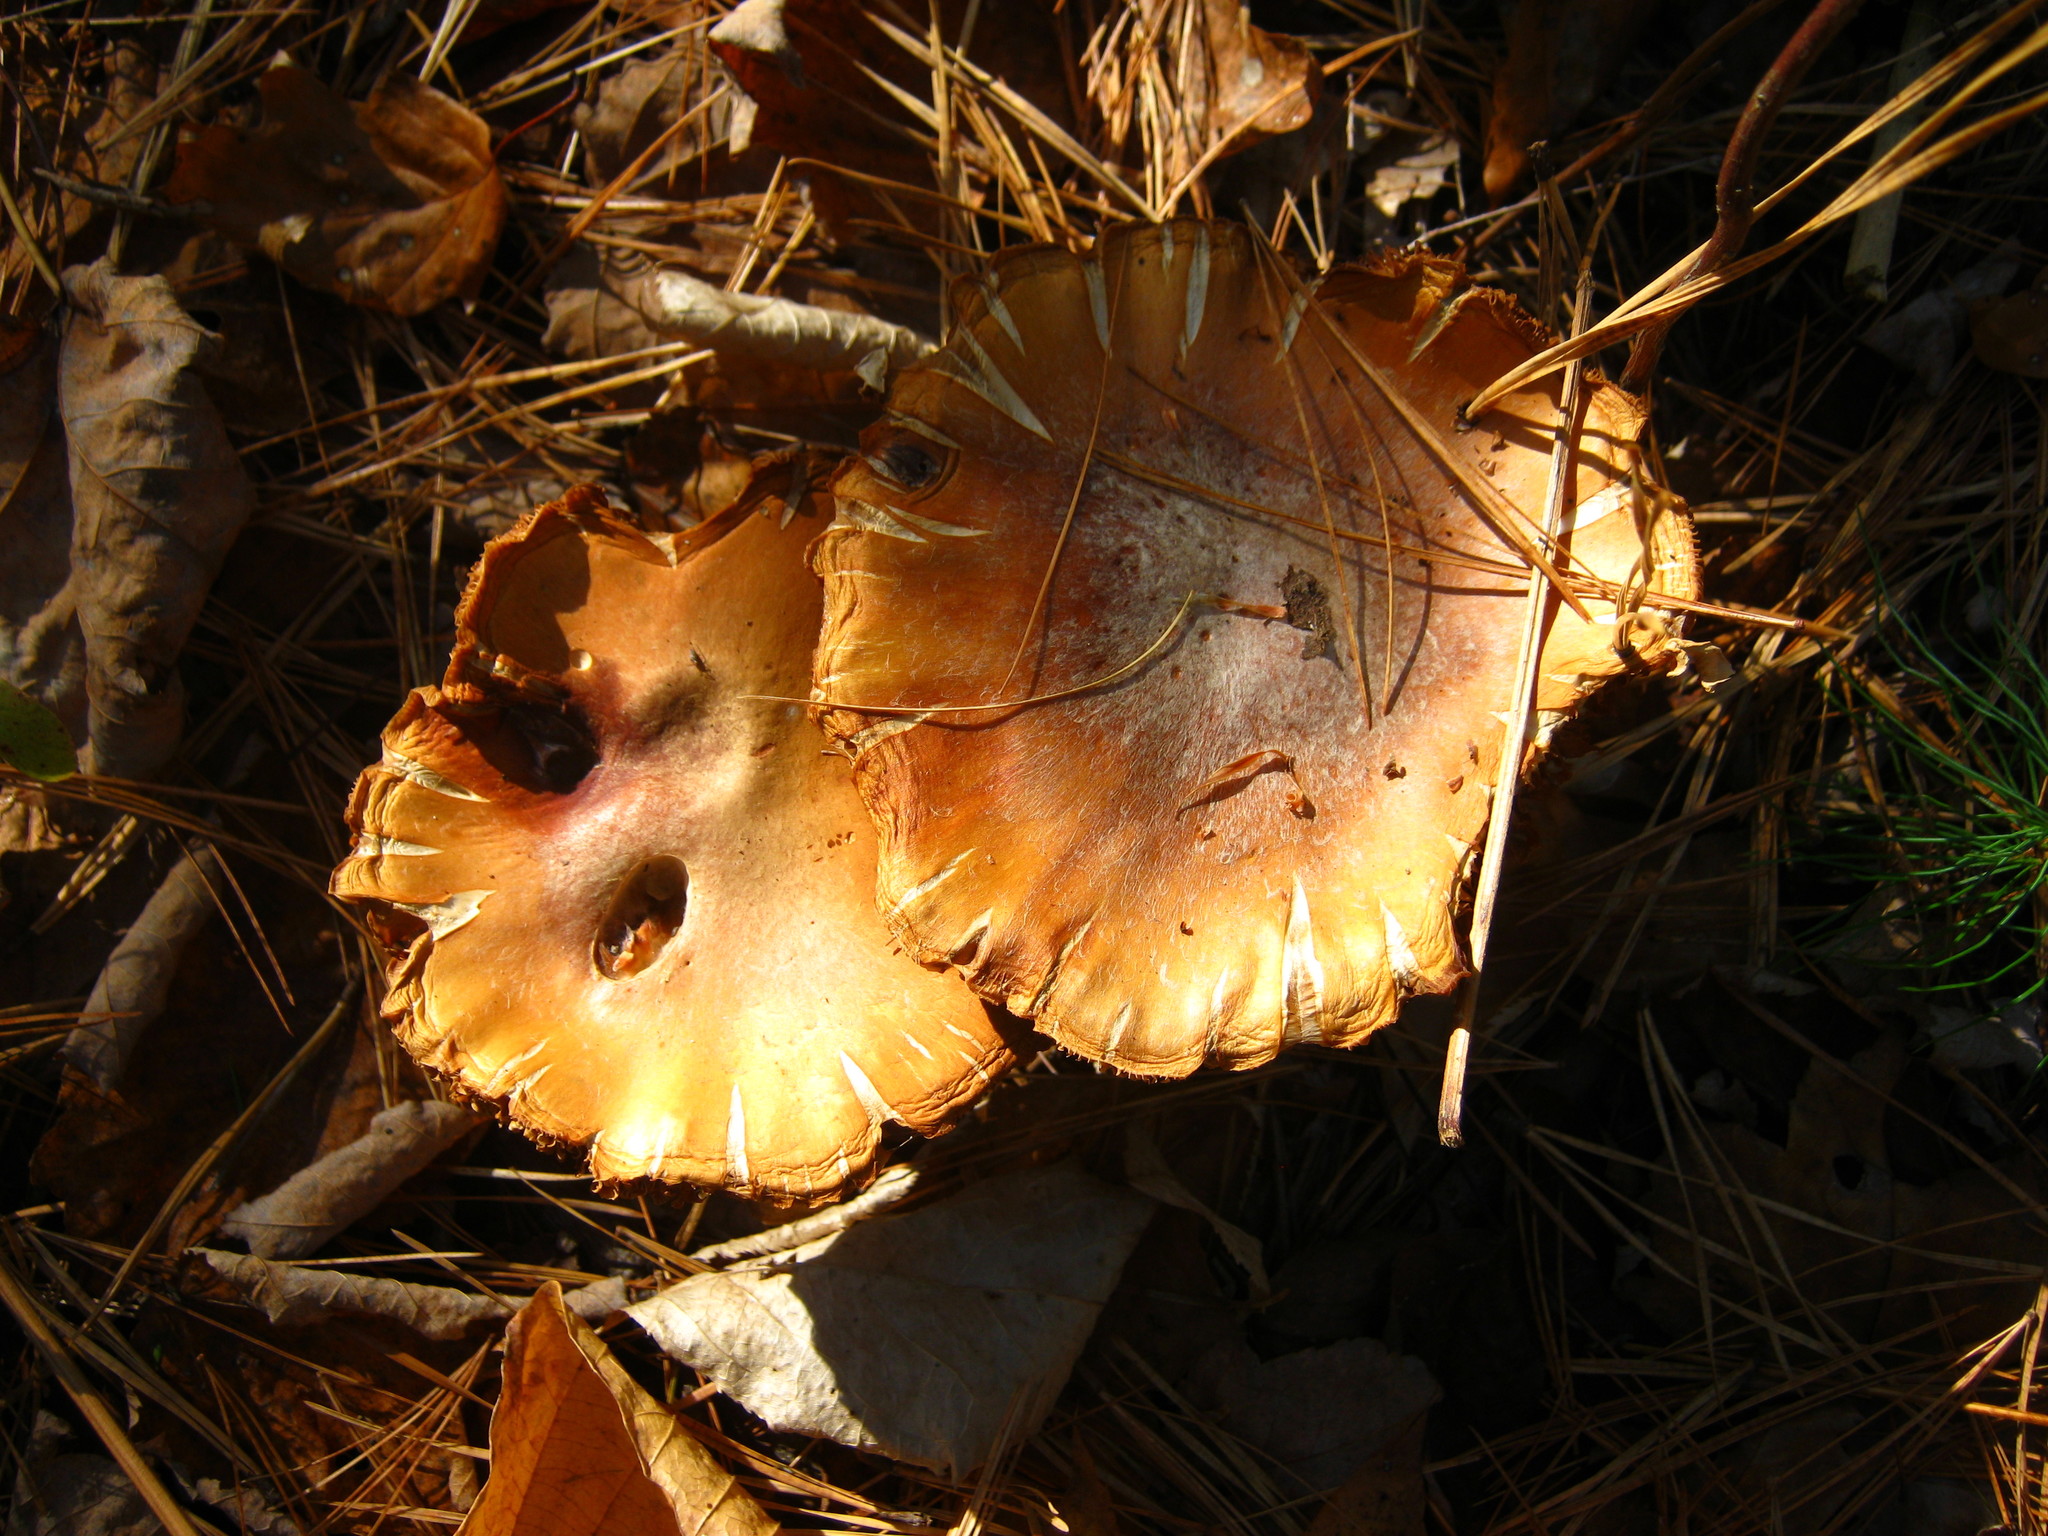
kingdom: Fungi
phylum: Basidiomycota
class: Agaricomycetes
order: Agaricales
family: Cortinariaceae
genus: Cortinarius
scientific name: Cortinarius caperatus
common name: The gypsy
